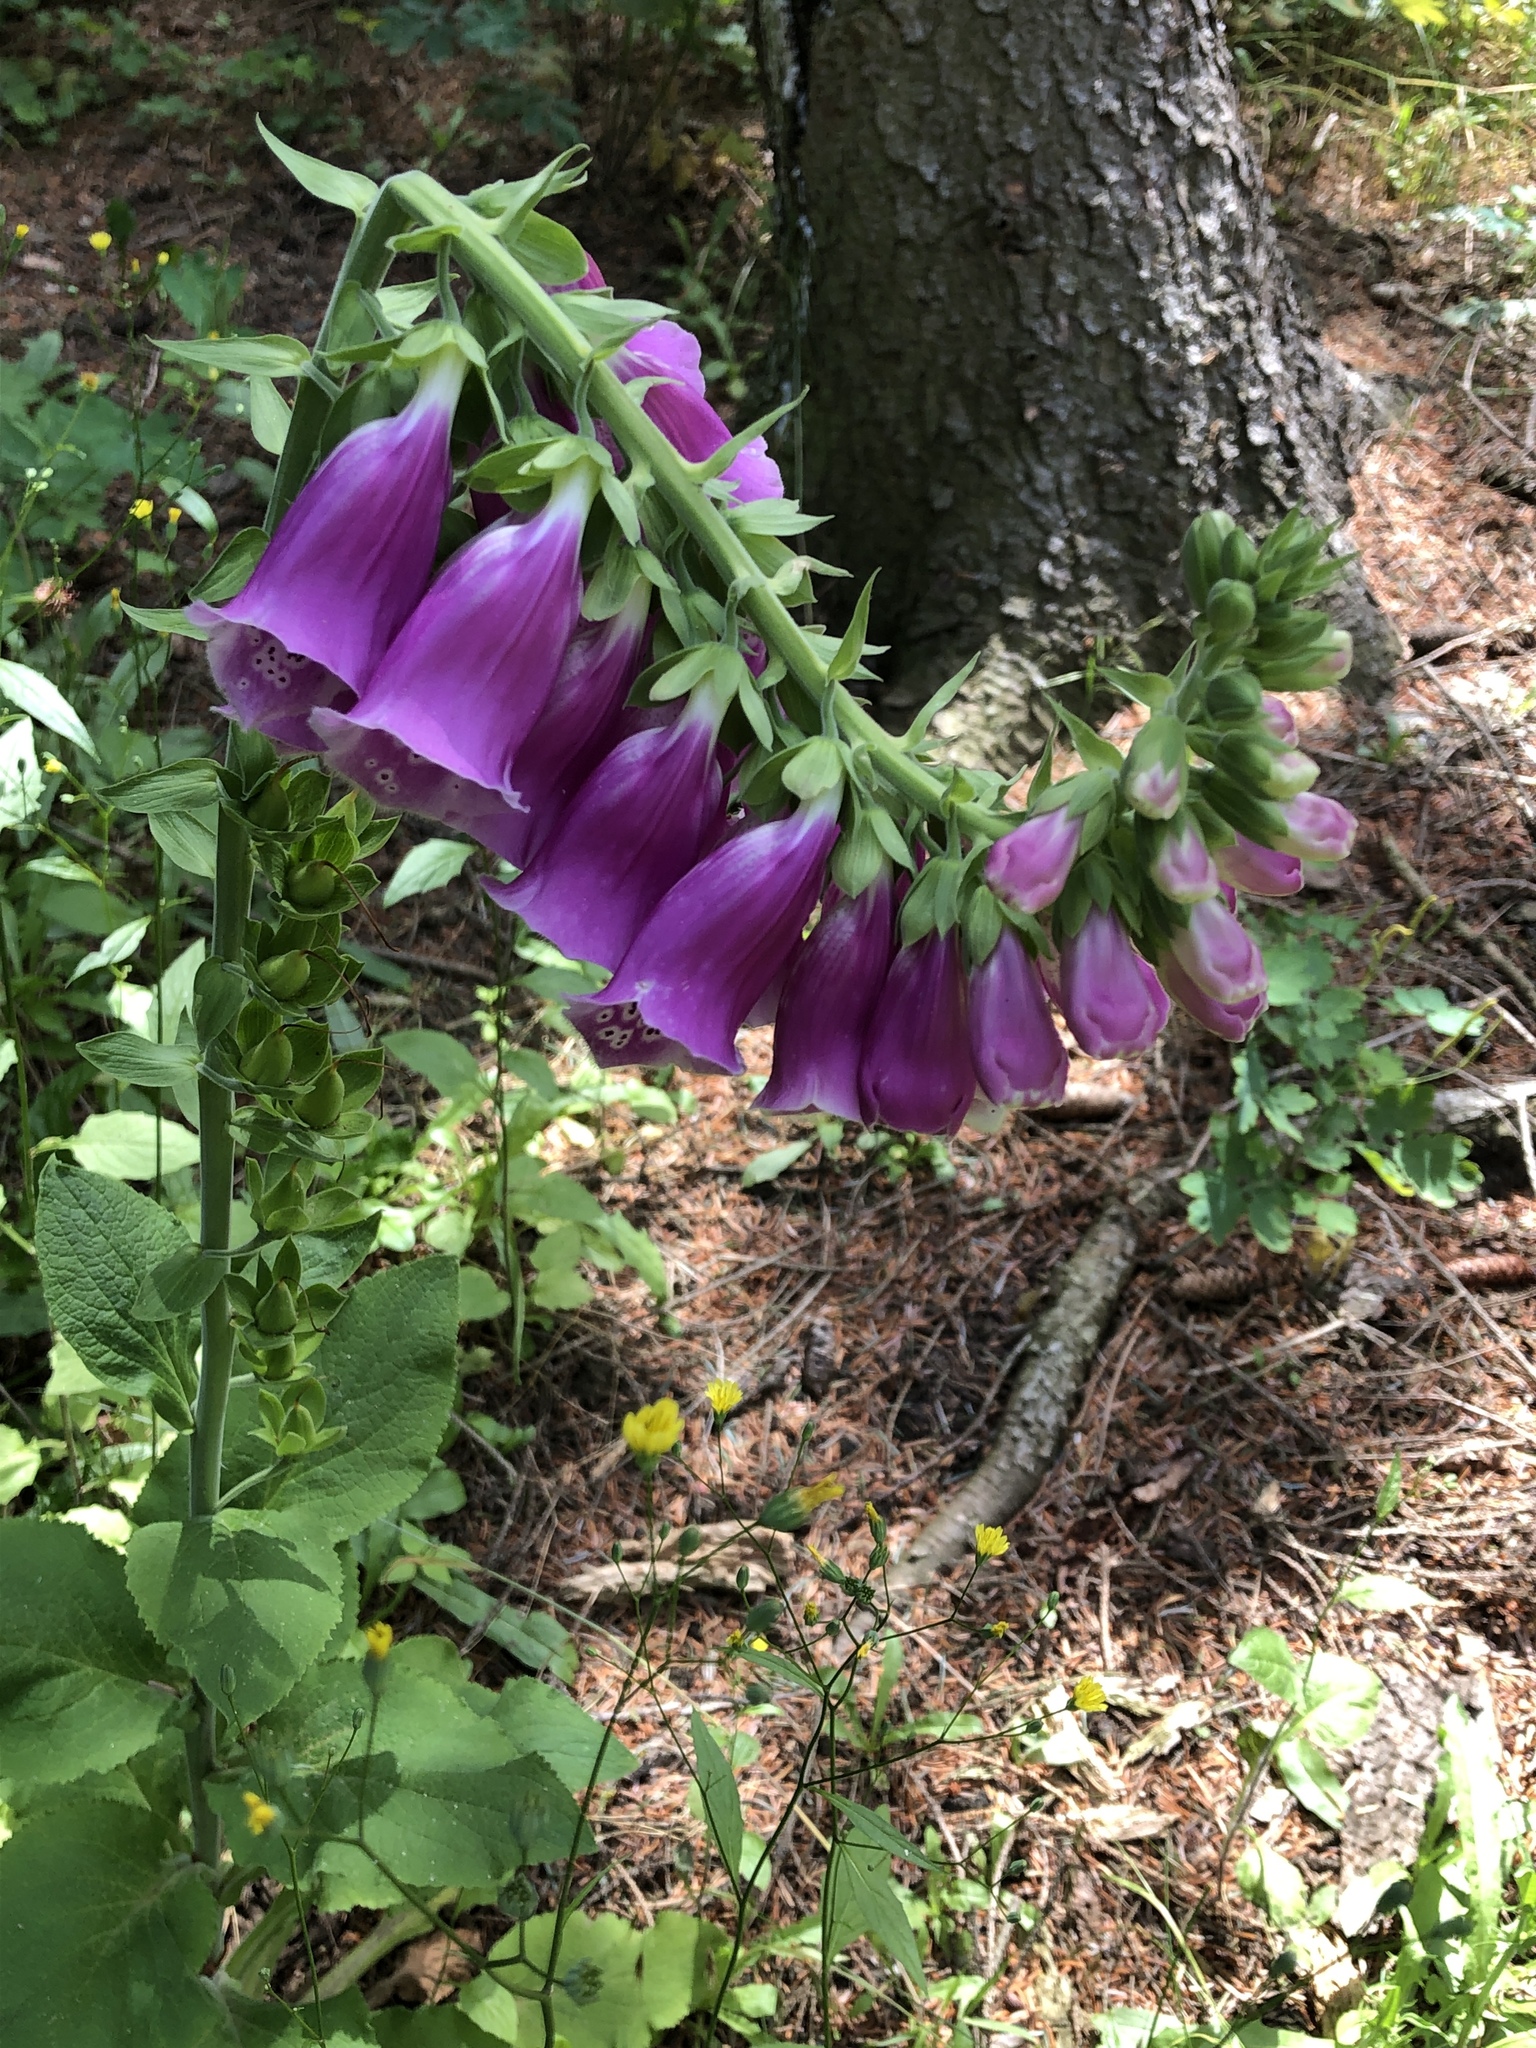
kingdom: Plantae
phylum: Tracheophyta
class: Magnoliopsida
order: Lamiales
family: Plantaginaceae
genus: Digitalis
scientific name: Digitalis purpurea
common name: Foxglove
